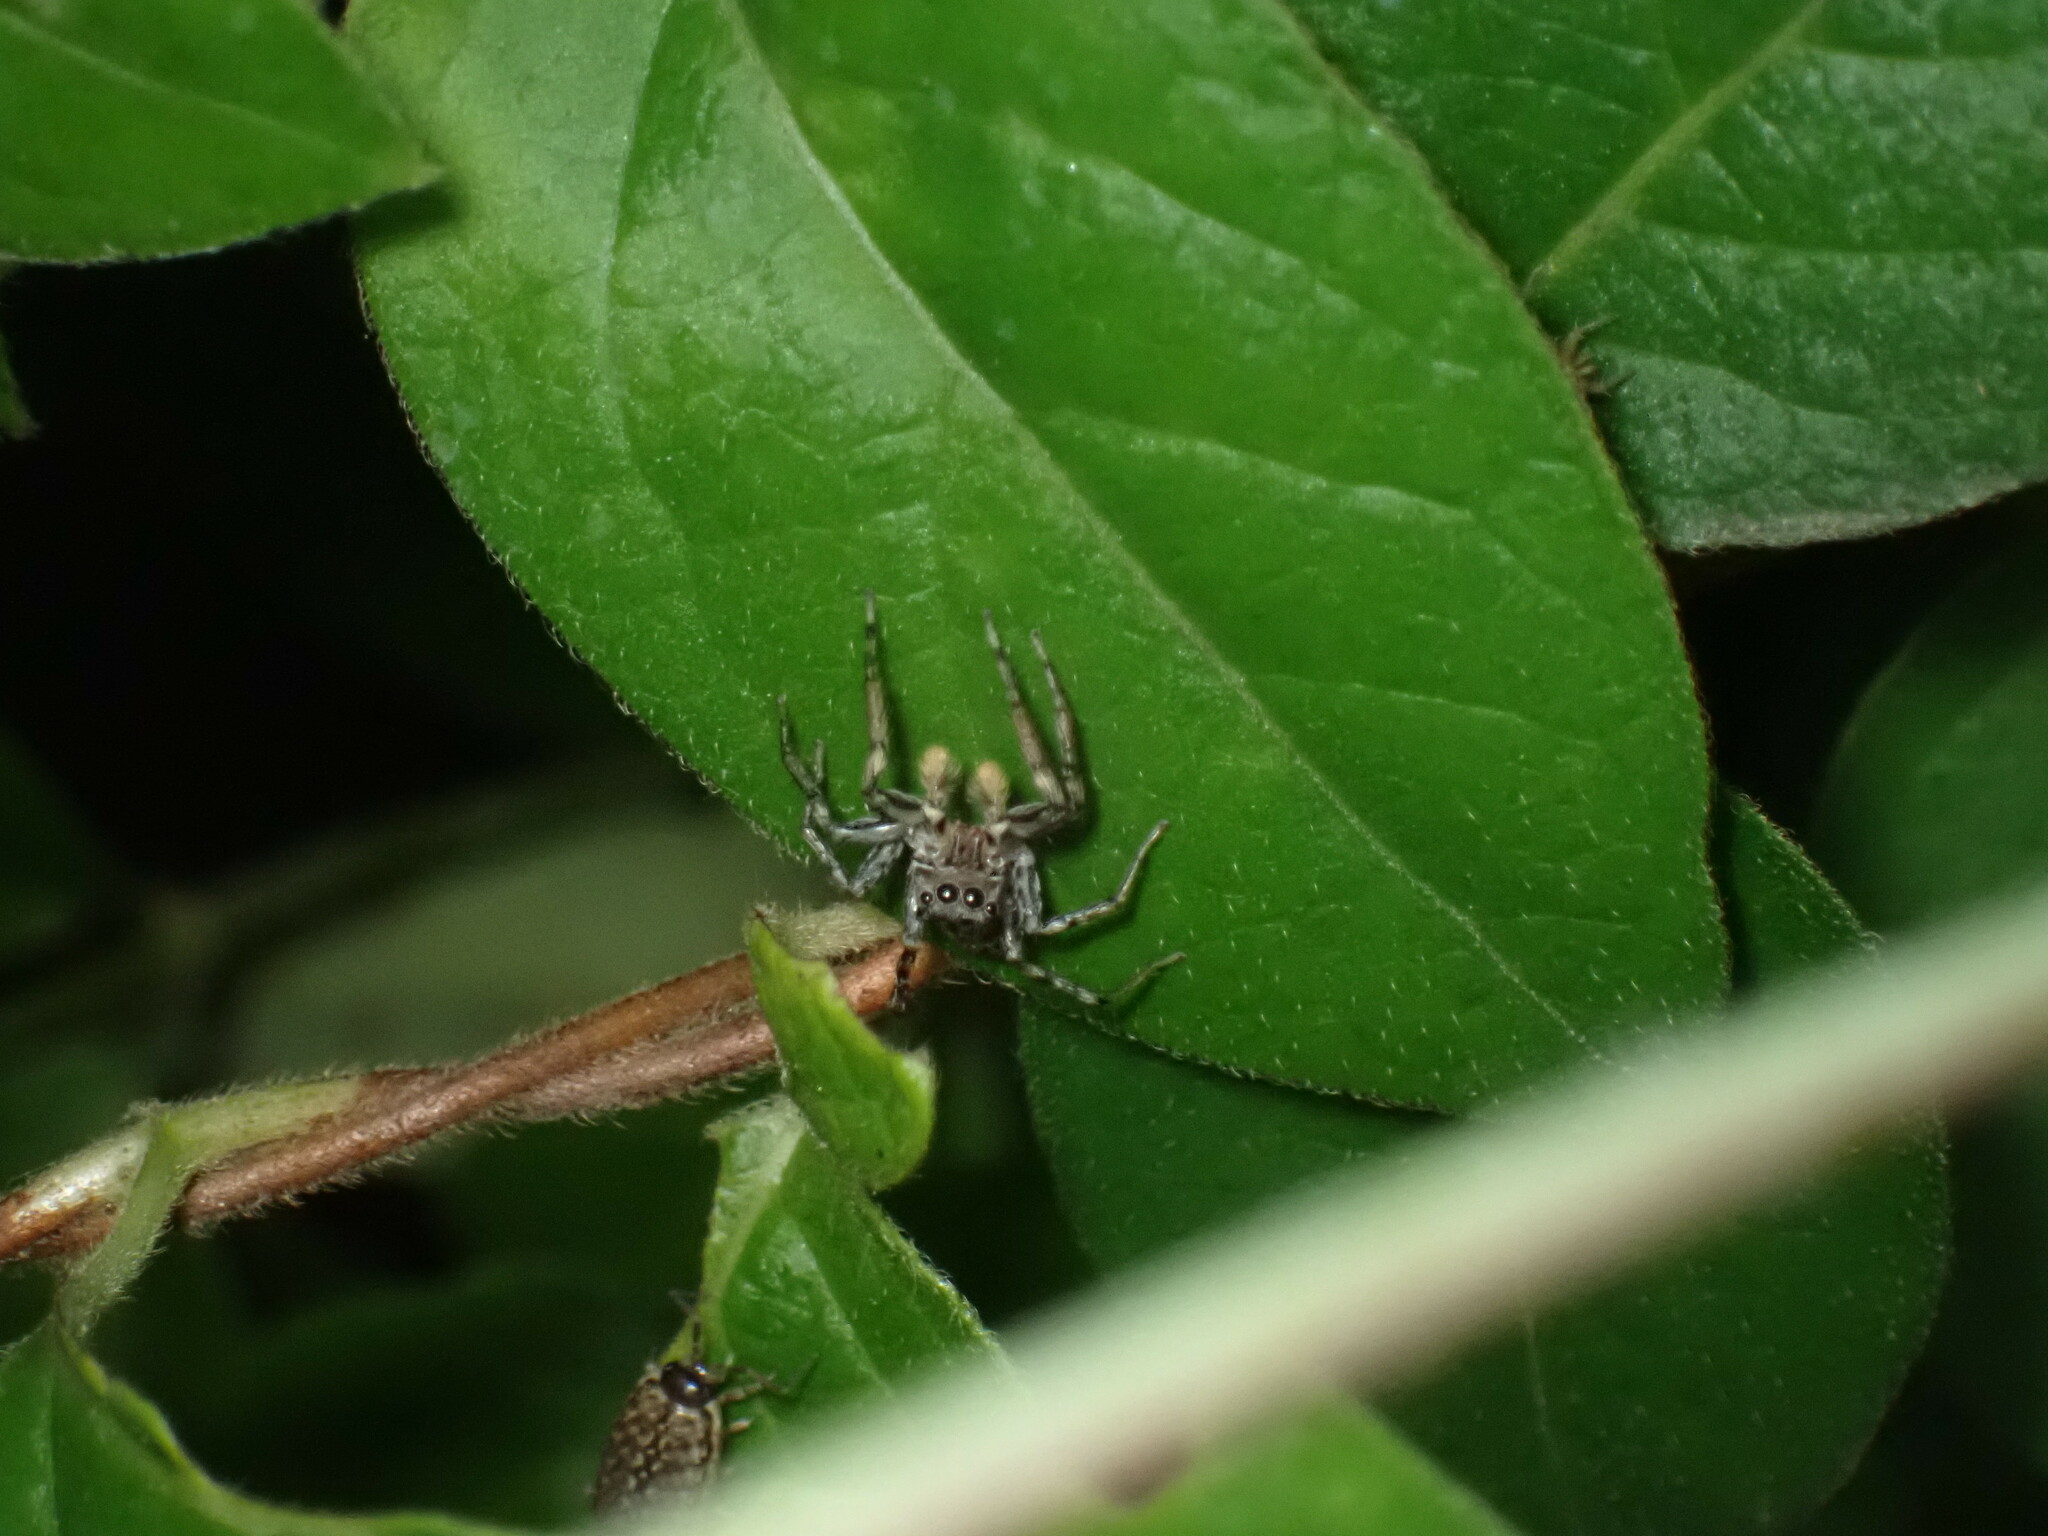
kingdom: Animalia
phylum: Arthropoda
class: Arachnida
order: Araneae
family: Salticidae
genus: Maevia
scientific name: Maevia inclemens
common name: Dimorphic jumper
